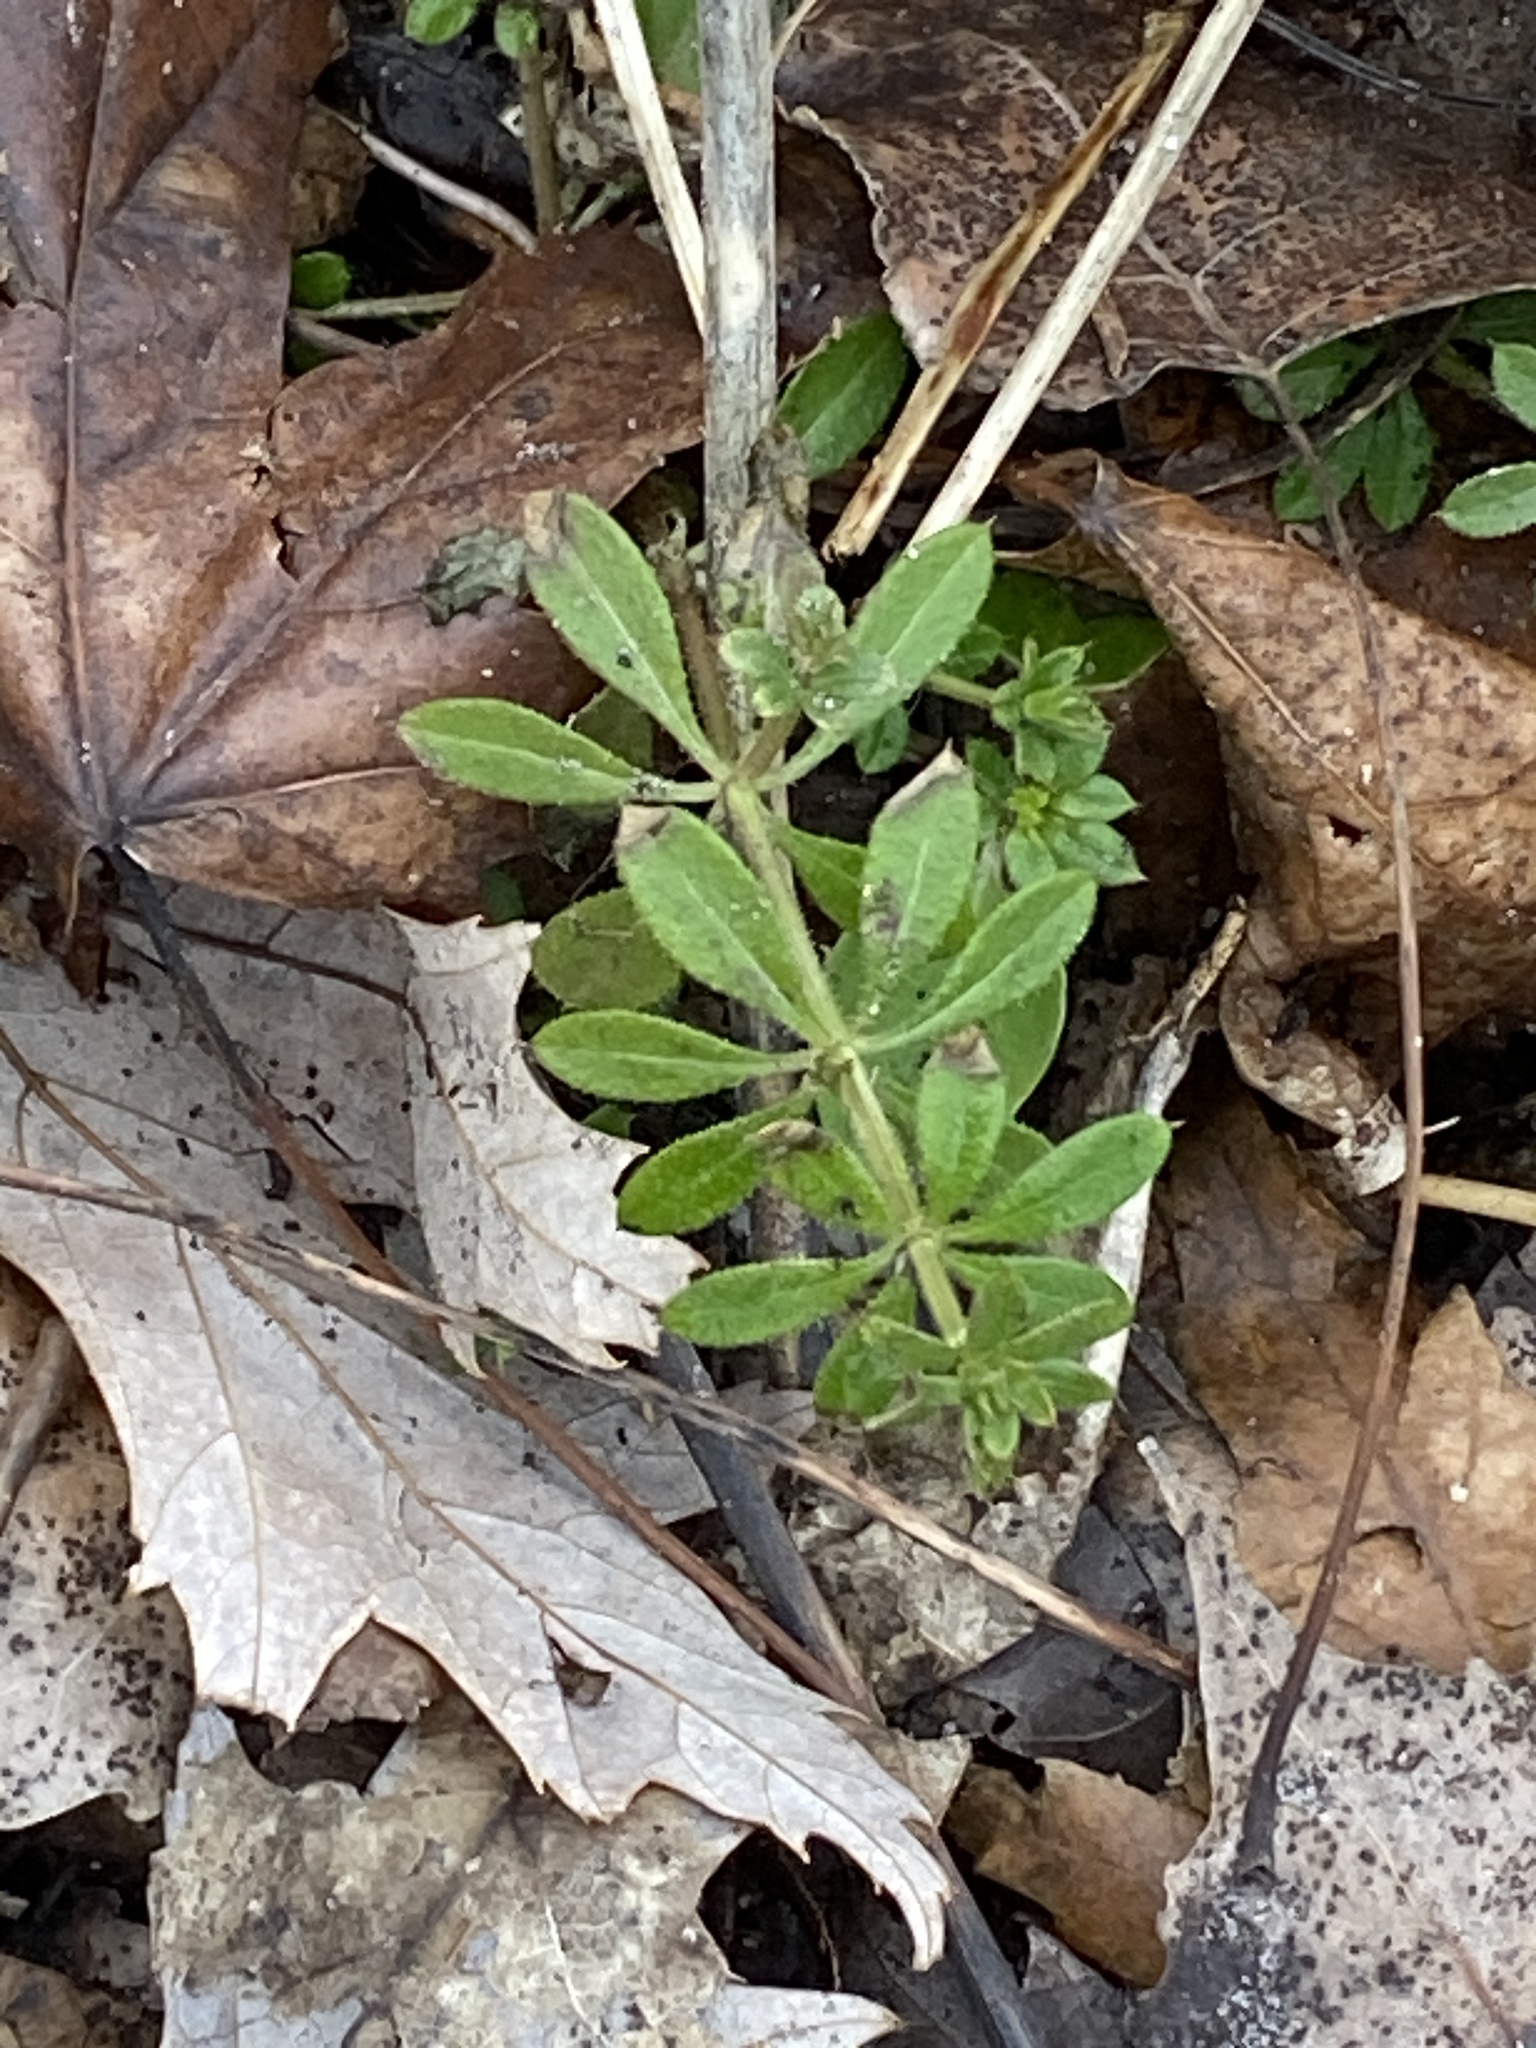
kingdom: Plantae
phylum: Tracheophyta
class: Magnoliopsida
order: Gentianales
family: Rubiaceae
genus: Galium
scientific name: Galium aparine
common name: Cleavers
